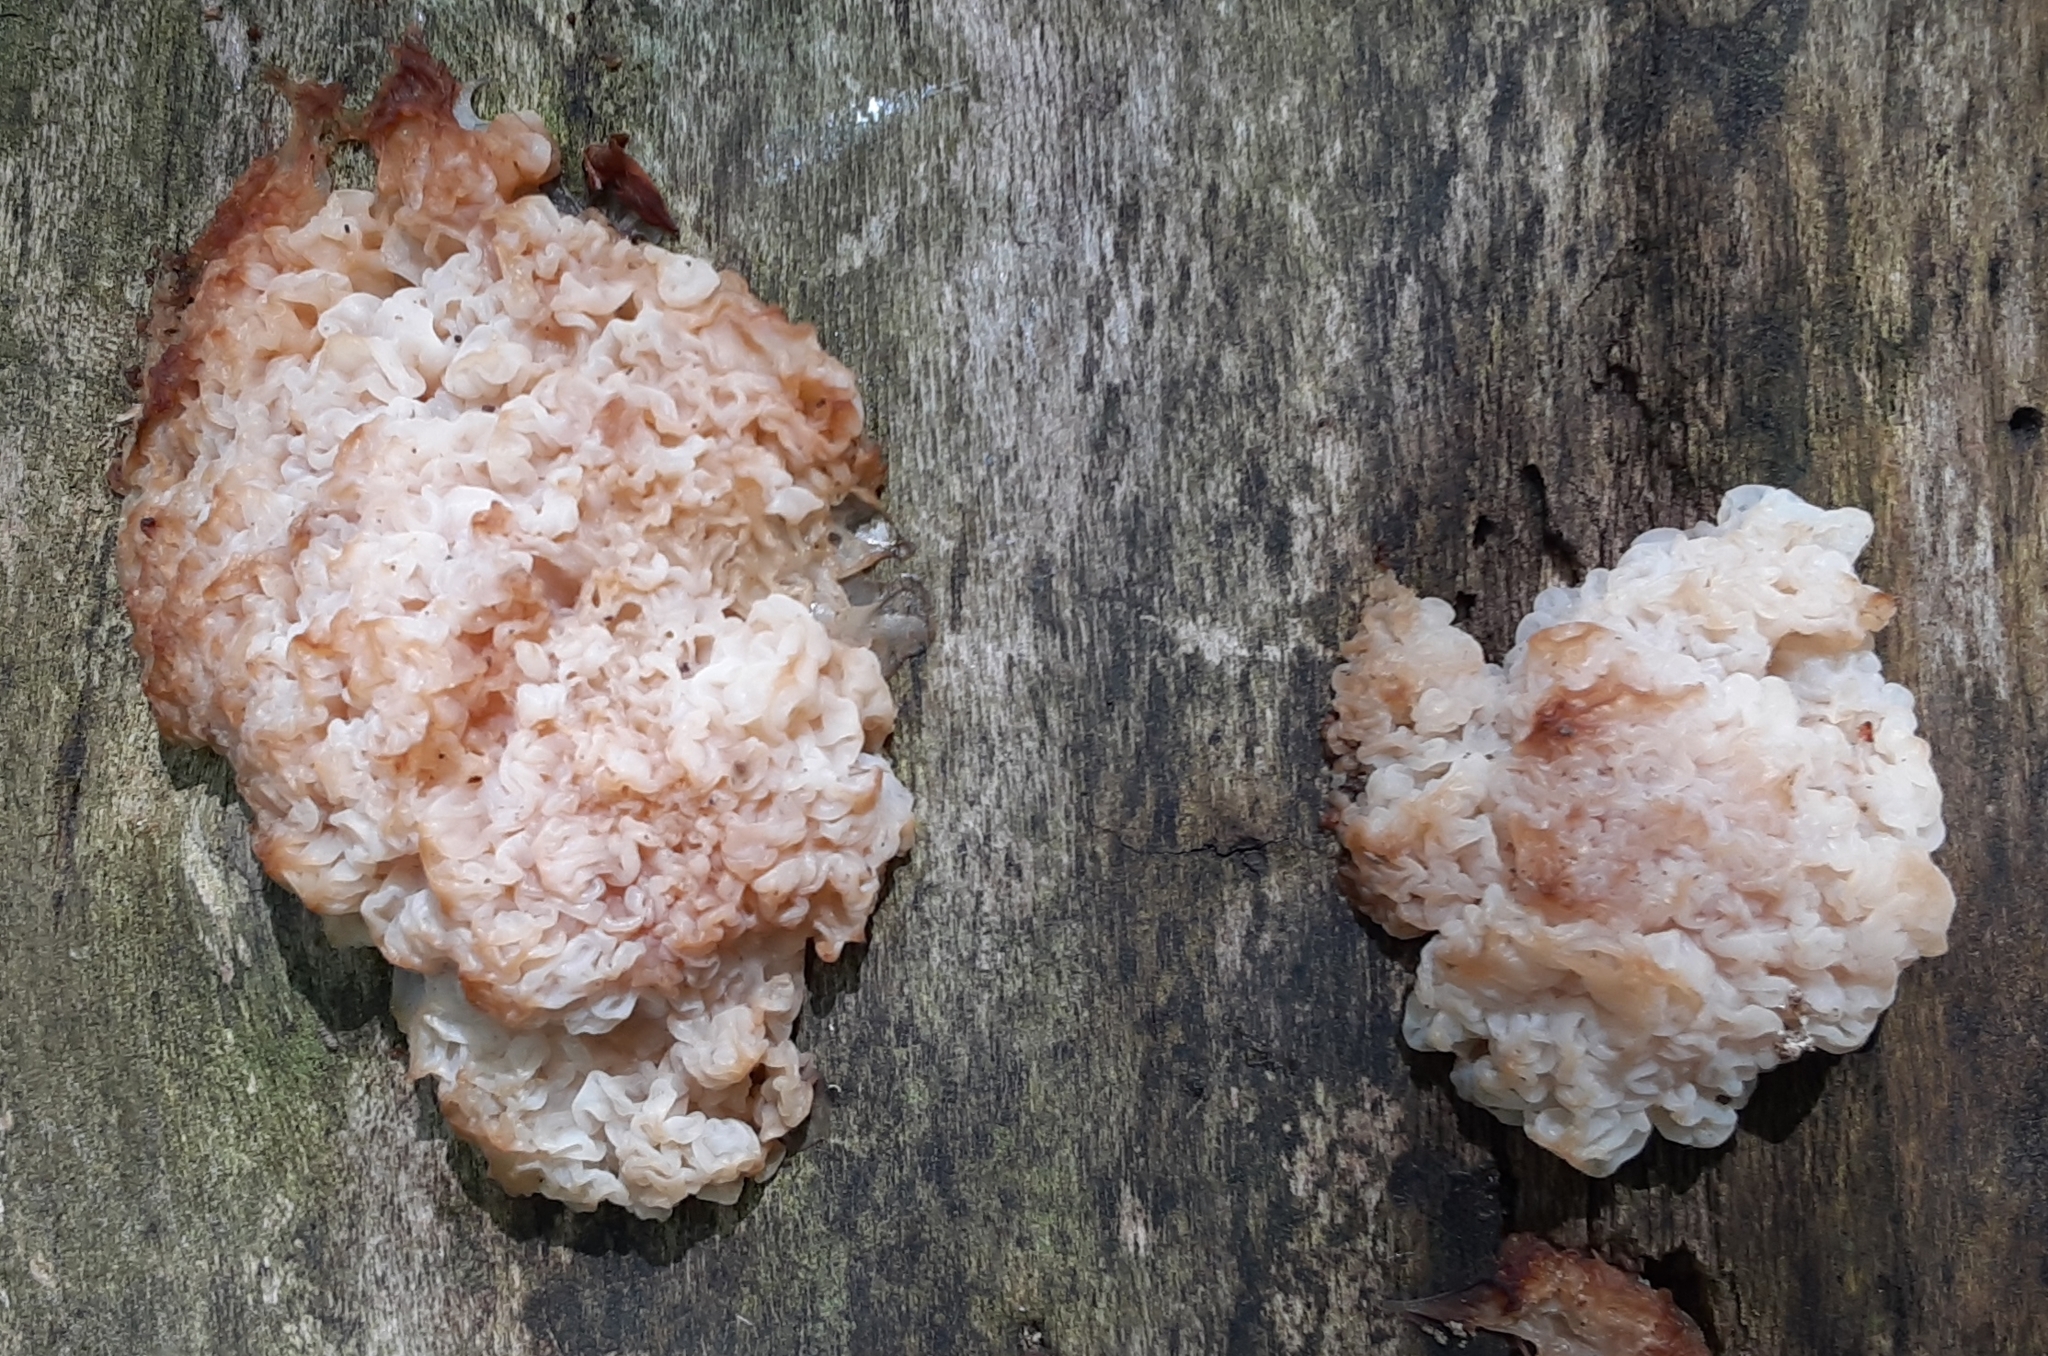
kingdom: Fungi
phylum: Basidiomycota
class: Agaricomycetes
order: Auriculariales
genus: Ductifera
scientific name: Ductifera pululahuana
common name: White jelly fungus
